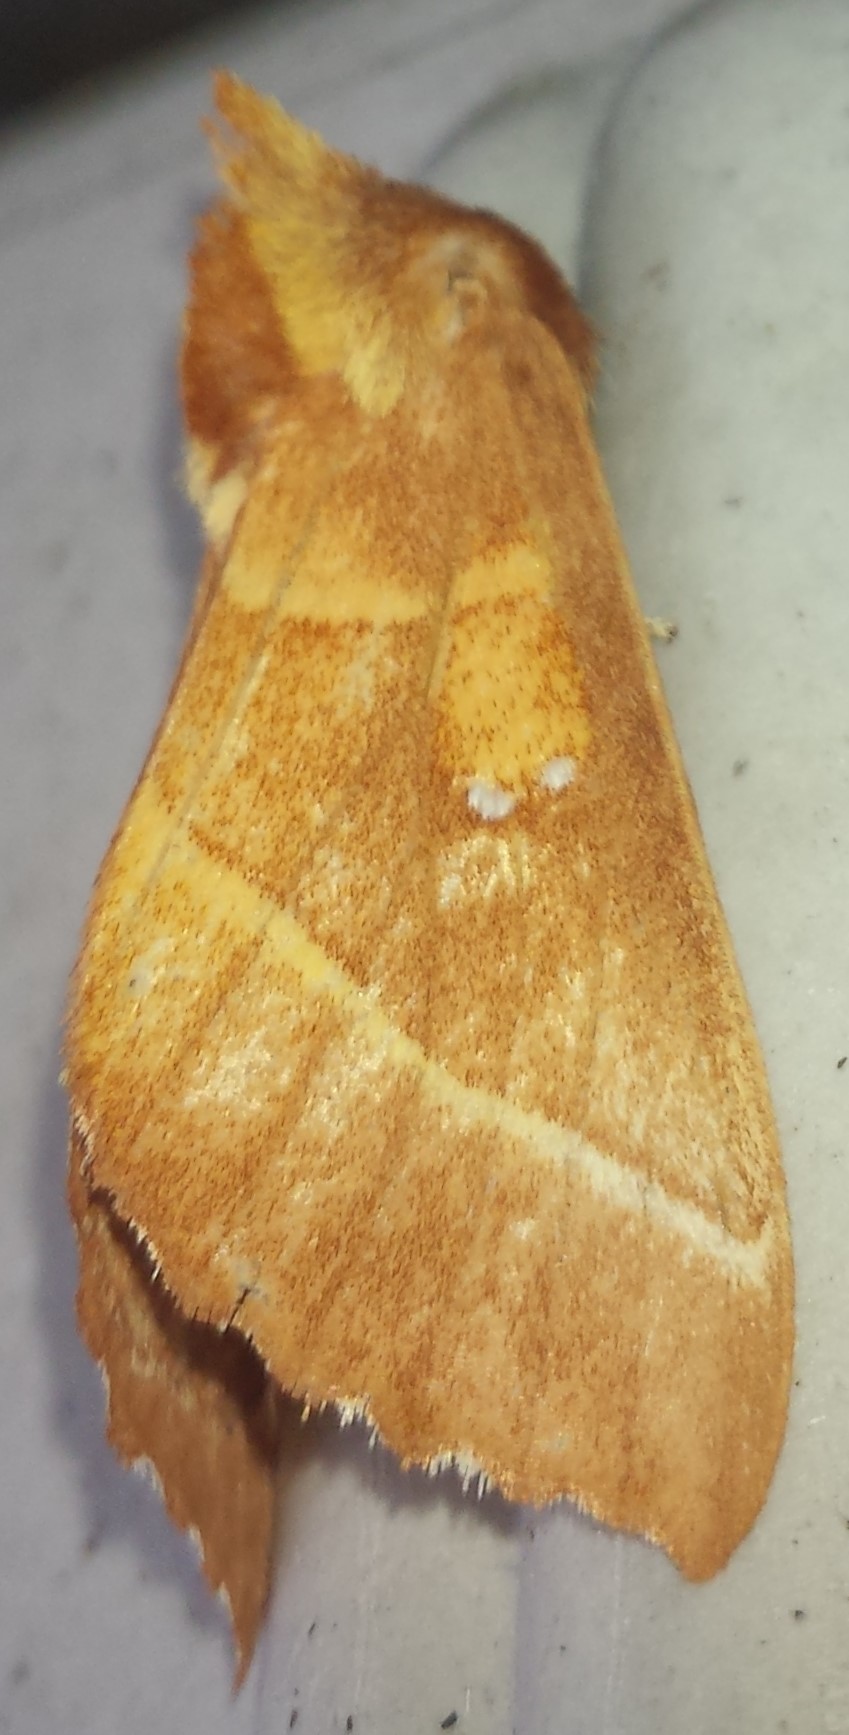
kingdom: Animalia
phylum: Arthropoda
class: Insecta
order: Lepidoptera
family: Notodontidae
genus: Nadata
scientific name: Nadata gibbosa
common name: White-dotted prominent
